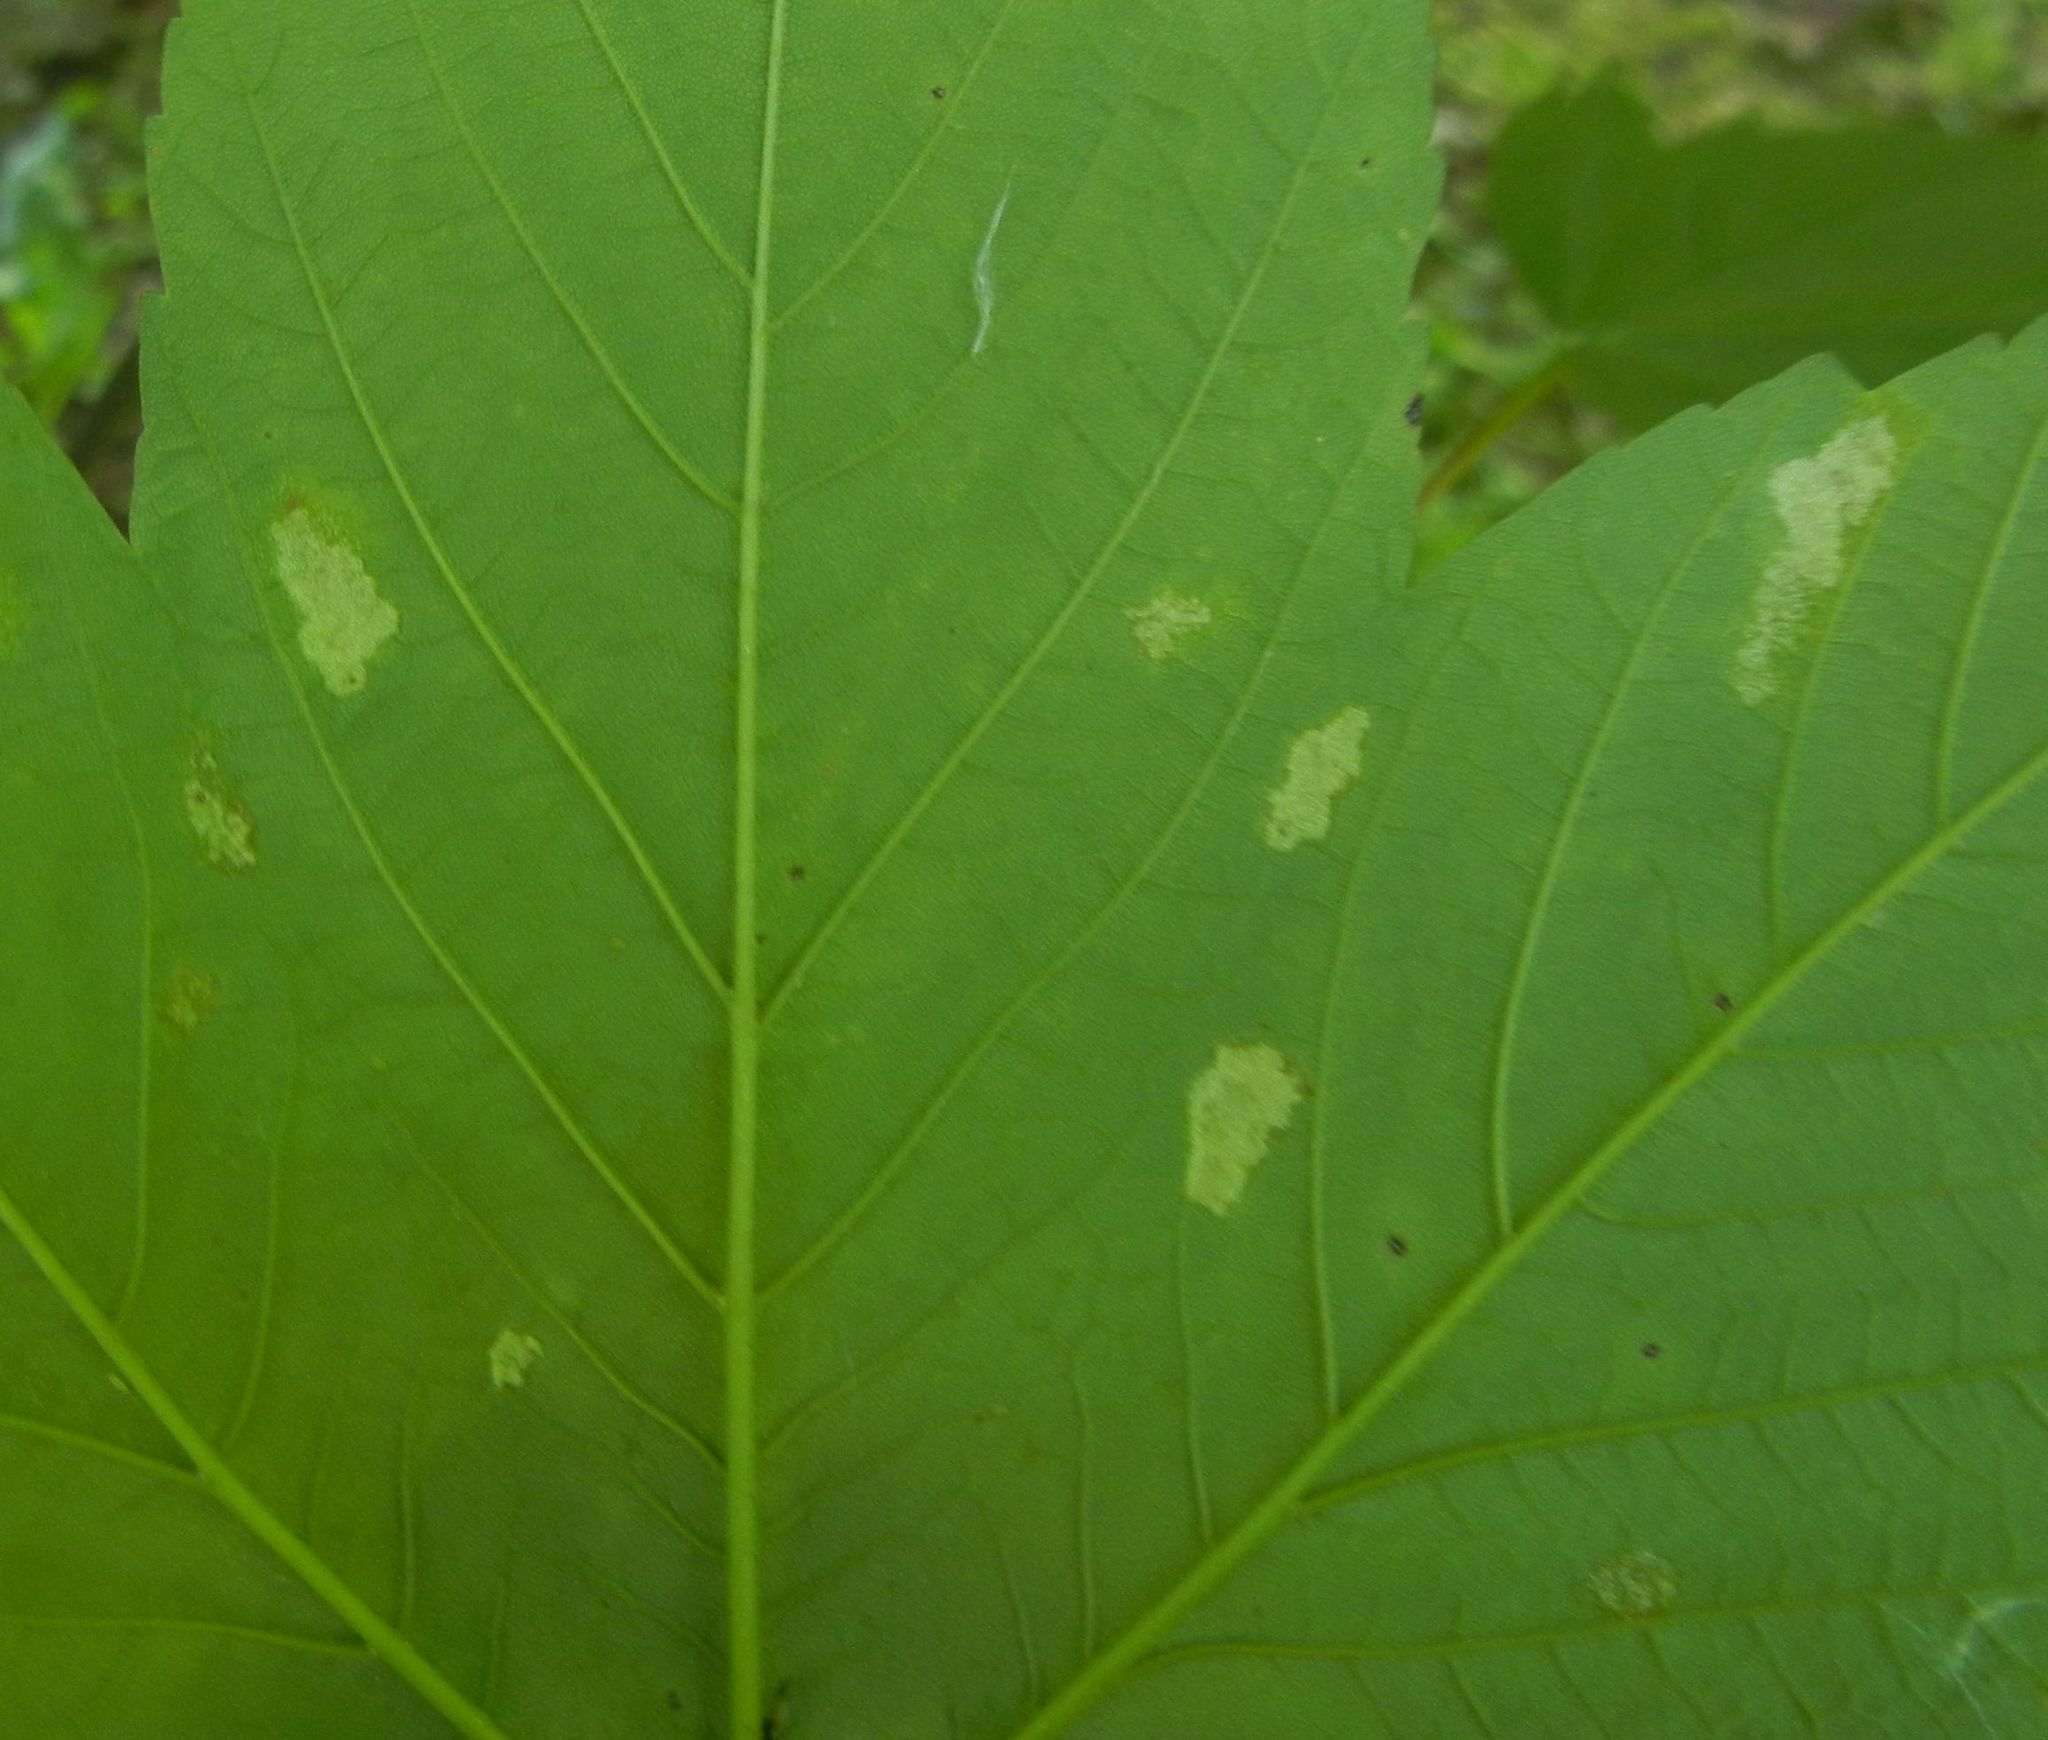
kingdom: Animalia
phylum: Arthropoda
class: Arachnida
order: Trombidiformes
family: Eriophyidae
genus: Aceria
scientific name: Aceria pseudoplatani
